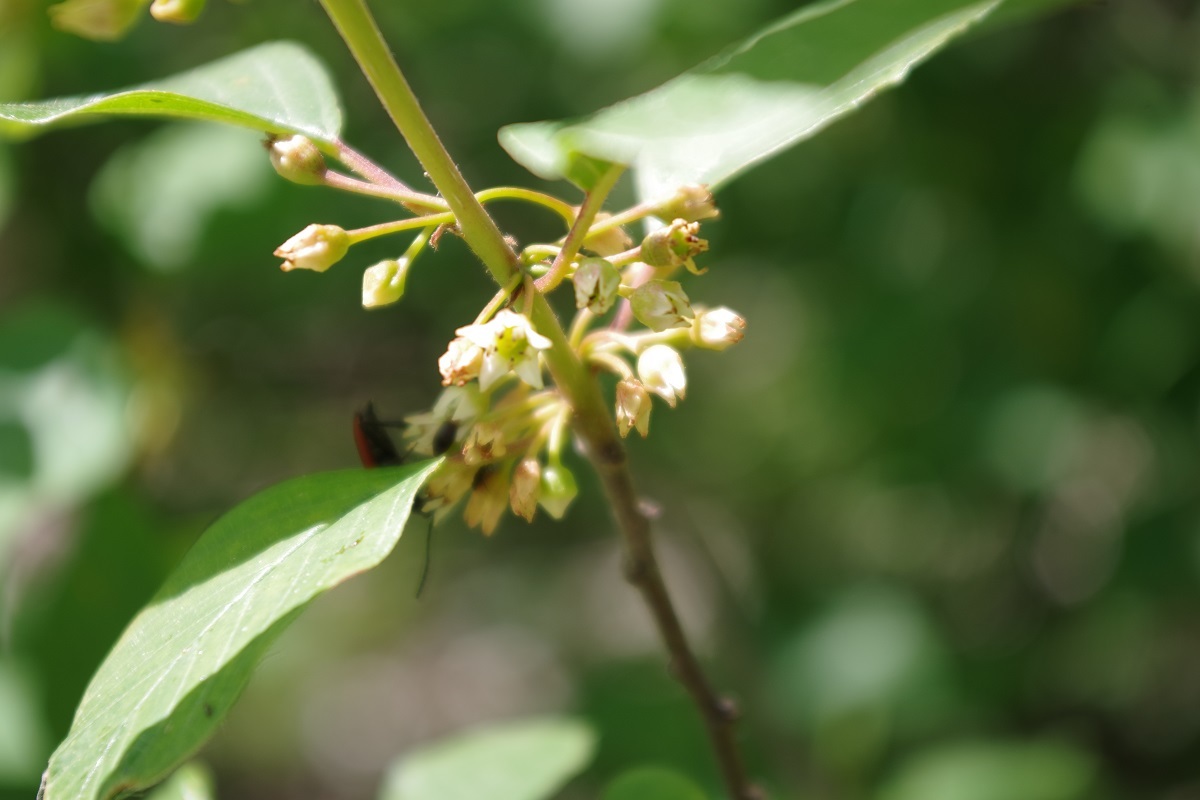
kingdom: Plantae
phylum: Tracheophyta
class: Magnoliopsida
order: Rosales
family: Rhamnaceae
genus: Frangula
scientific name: Frangula alnus
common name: Alder buckthorn
